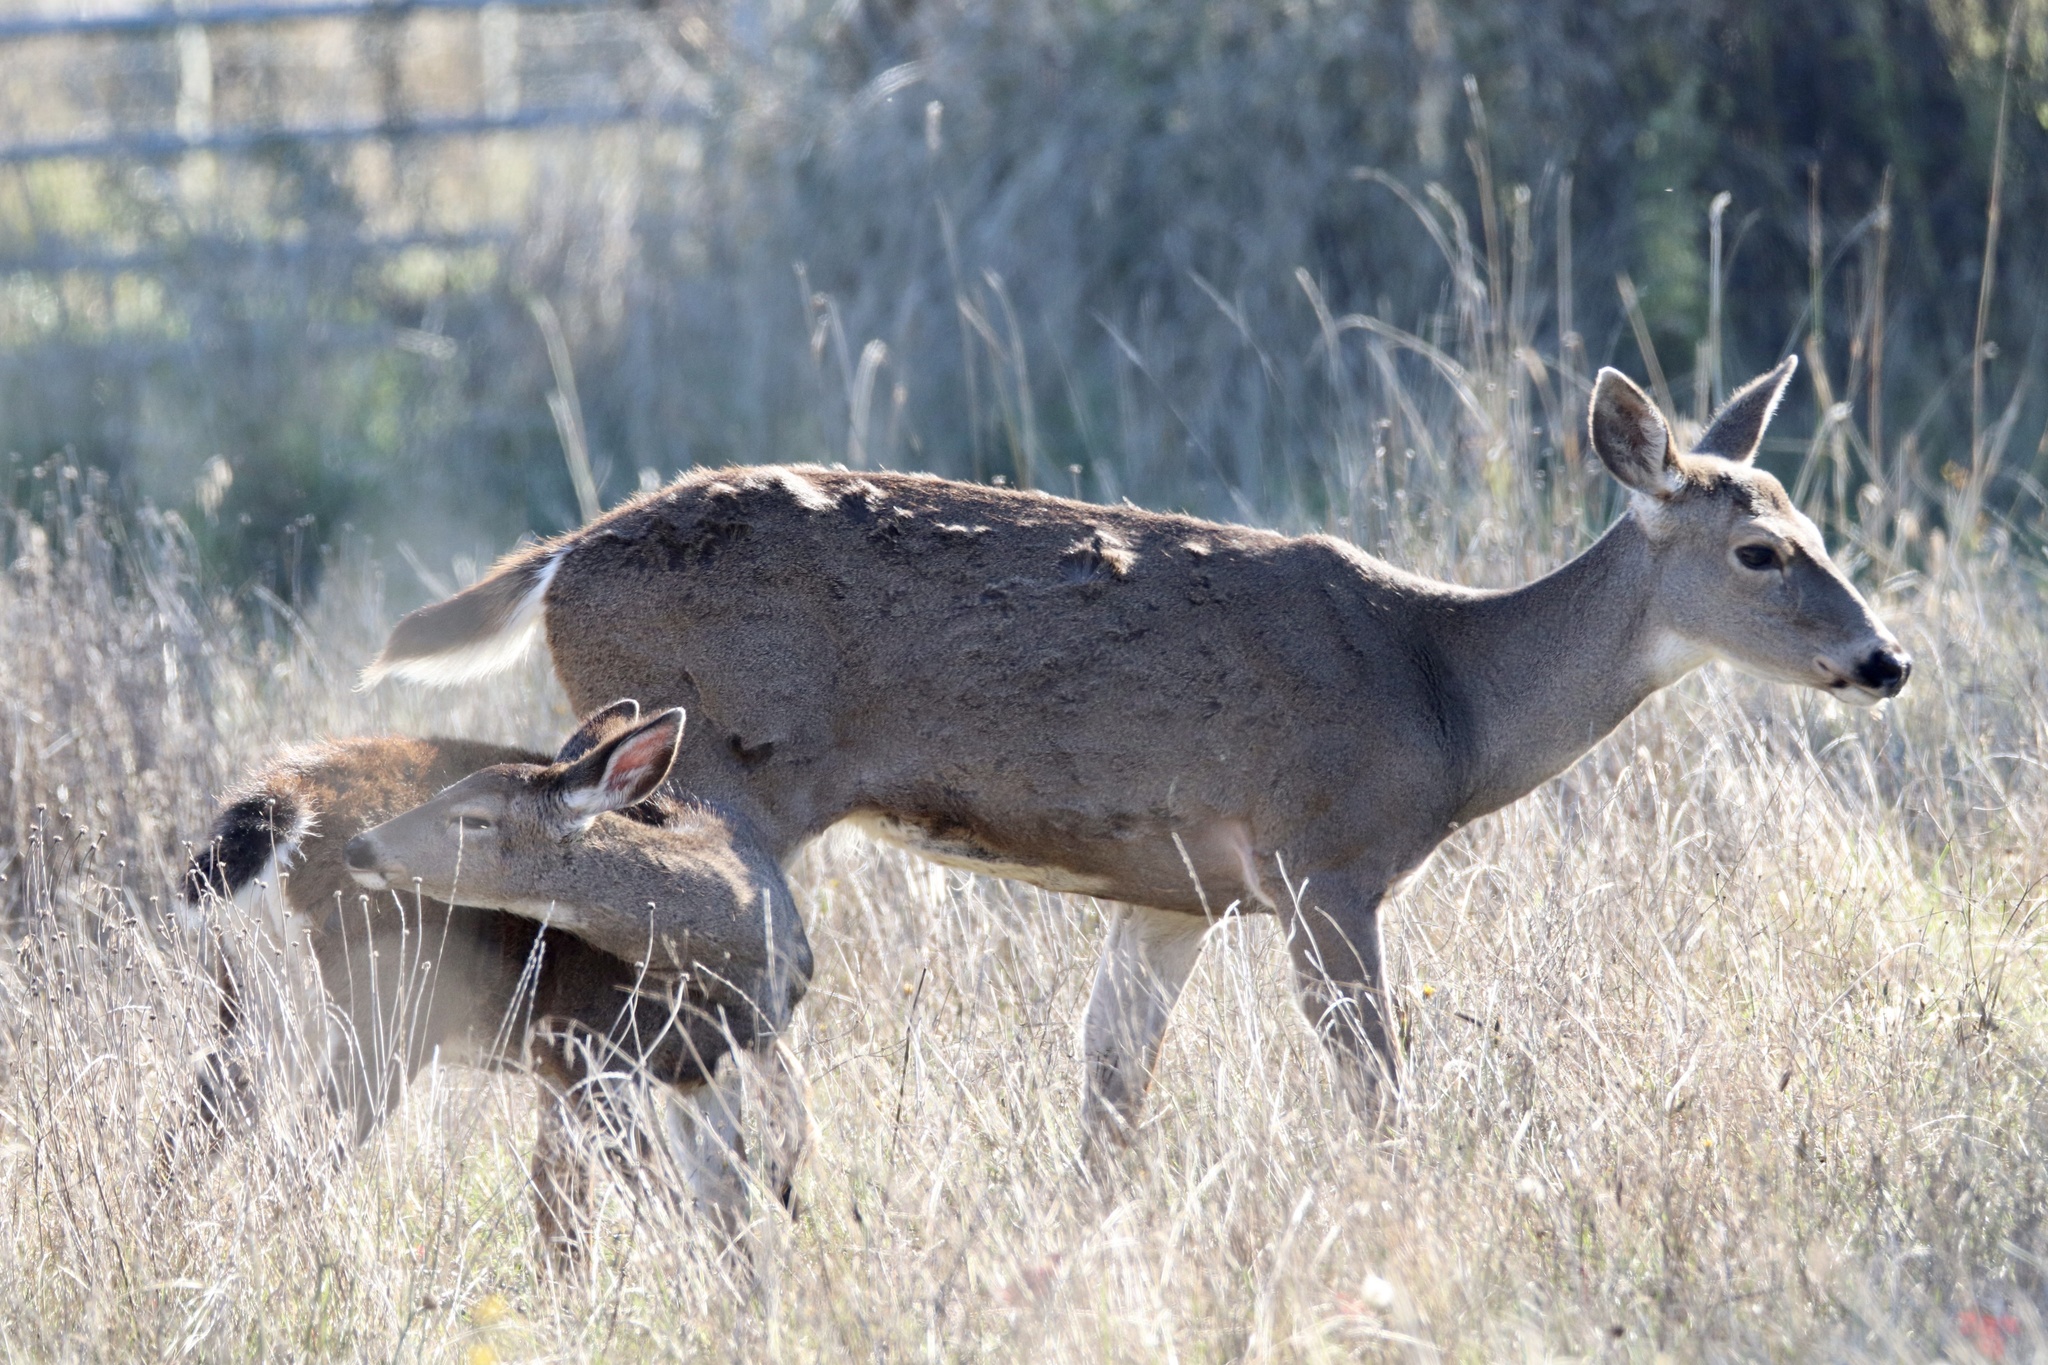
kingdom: Animalia
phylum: Chordata
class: Mammalia
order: Artiodactyla
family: Cervidae
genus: Odocoileus
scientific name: Odocoileus hemionus
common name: Mule deer
